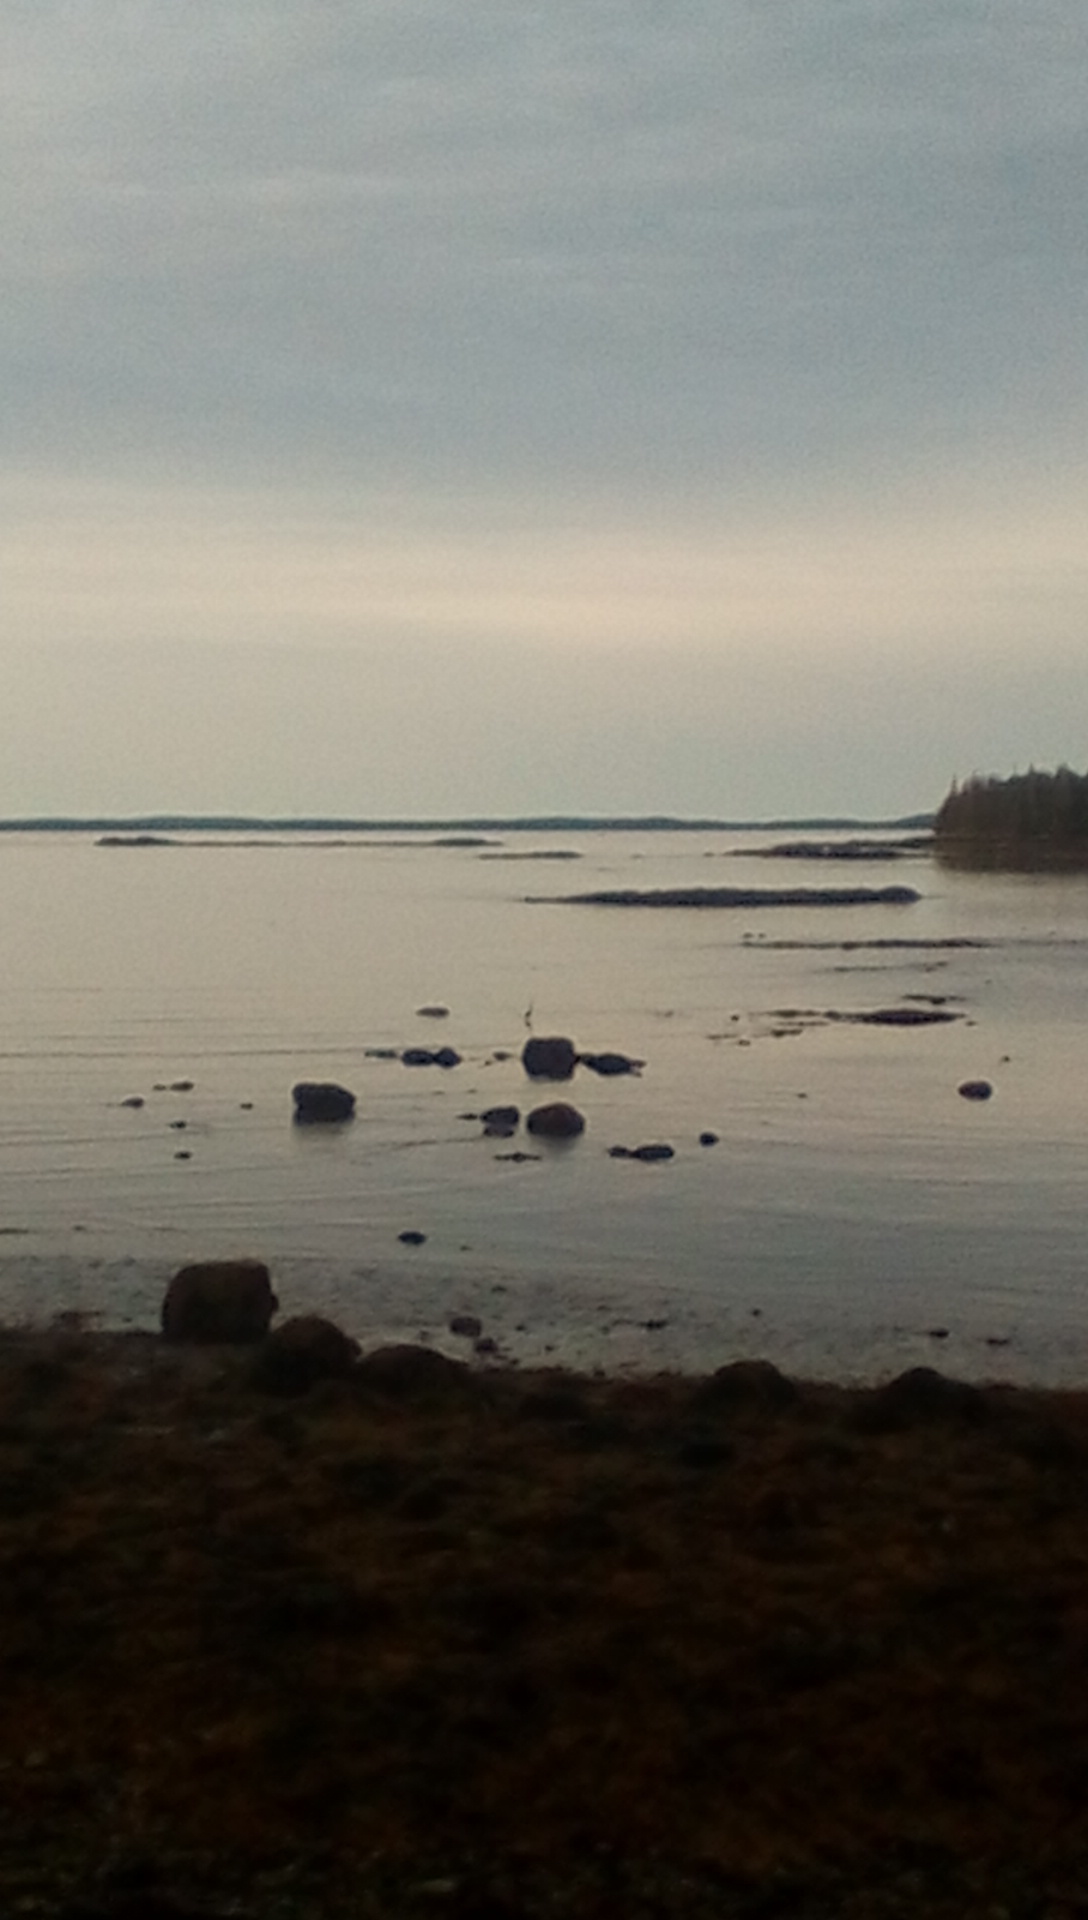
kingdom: Animalia
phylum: Chordata
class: Aves
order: Pelecaniformes
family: Ardeidae
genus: Ardea
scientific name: Ardea herodias
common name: Great blue heron
